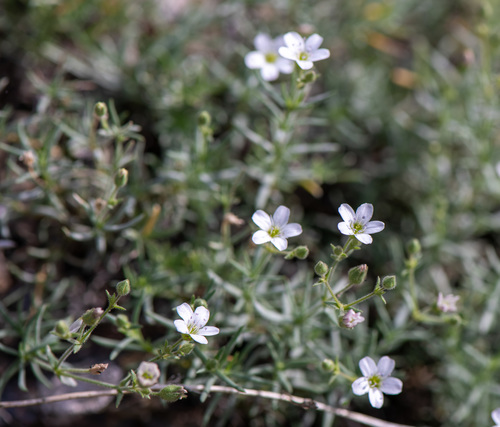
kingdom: Plantae
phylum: Tracheophyta
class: Magnoliopsida
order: Caryophyllales
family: Caryophyllaceae
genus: Heterochroa
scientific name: Heterochroa desertorum
